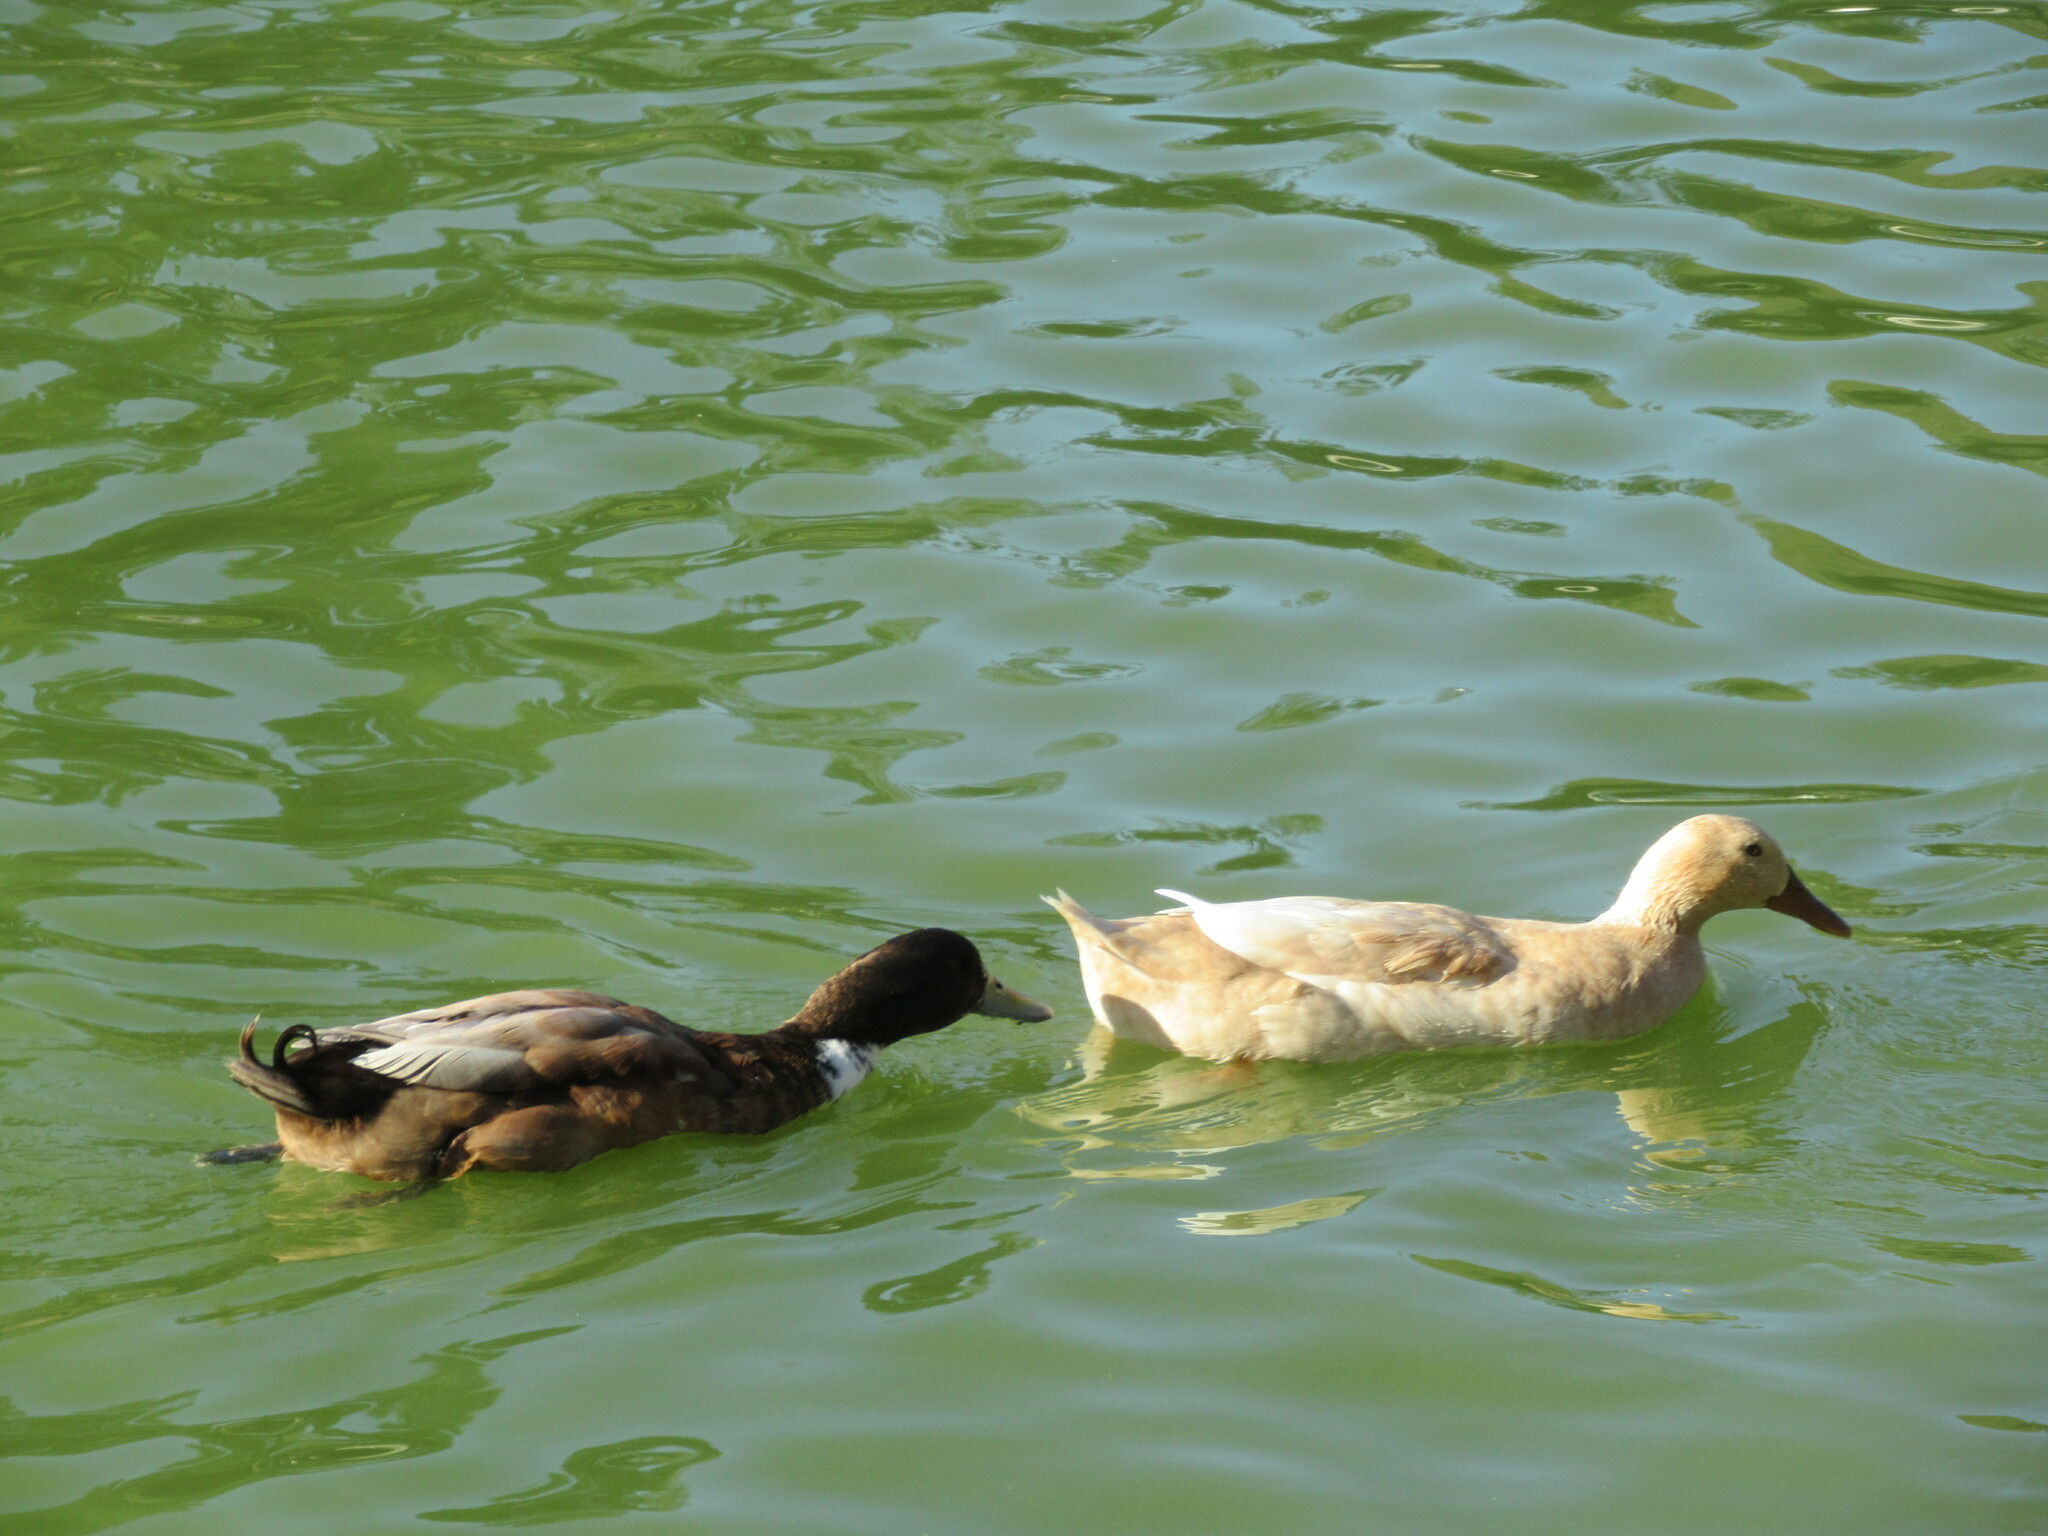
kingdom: Animalia
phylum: Chordata
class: Aves
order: Anseriformes
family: Anatidae
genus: Anas
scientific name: Anas platyrhynchos
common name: Mallard
